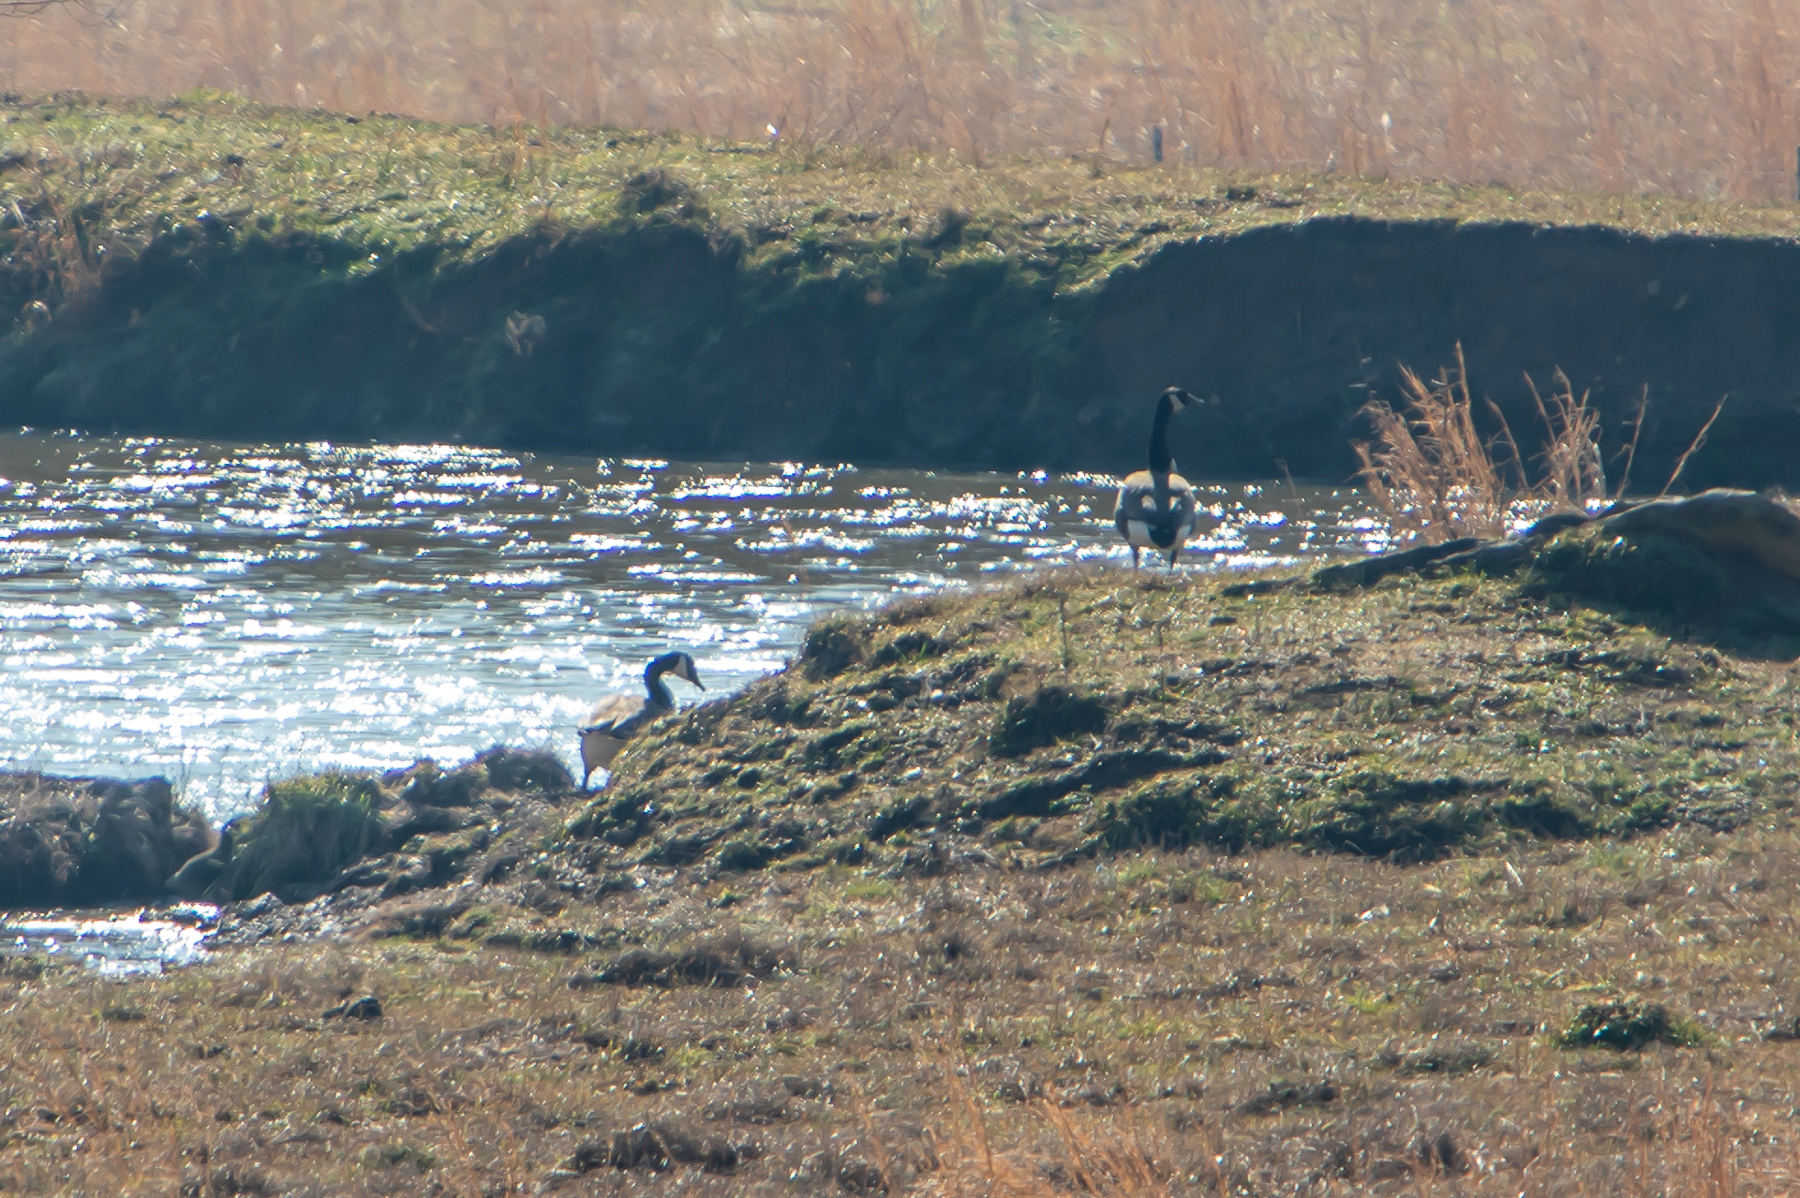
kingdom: Animalia
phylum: Chordata
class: Aves
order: Anseriformes
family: Anatidae
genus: Branta
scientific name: Branta canadensis
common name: Canada goose
